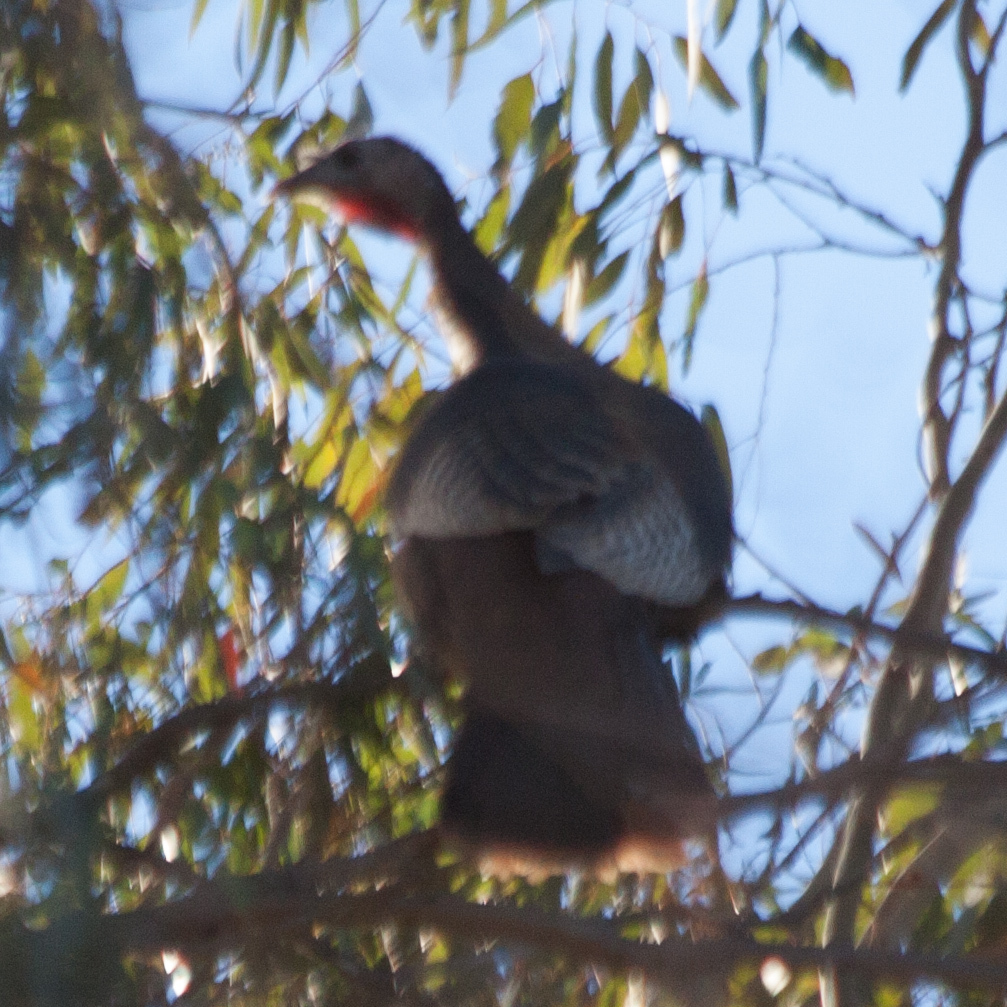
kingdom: Animalia
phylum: Chordata
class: Aves
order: Galliformes
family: Phasianidae
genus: Meleagris
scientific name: Meleagris gallopavo
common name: Wild turkey
